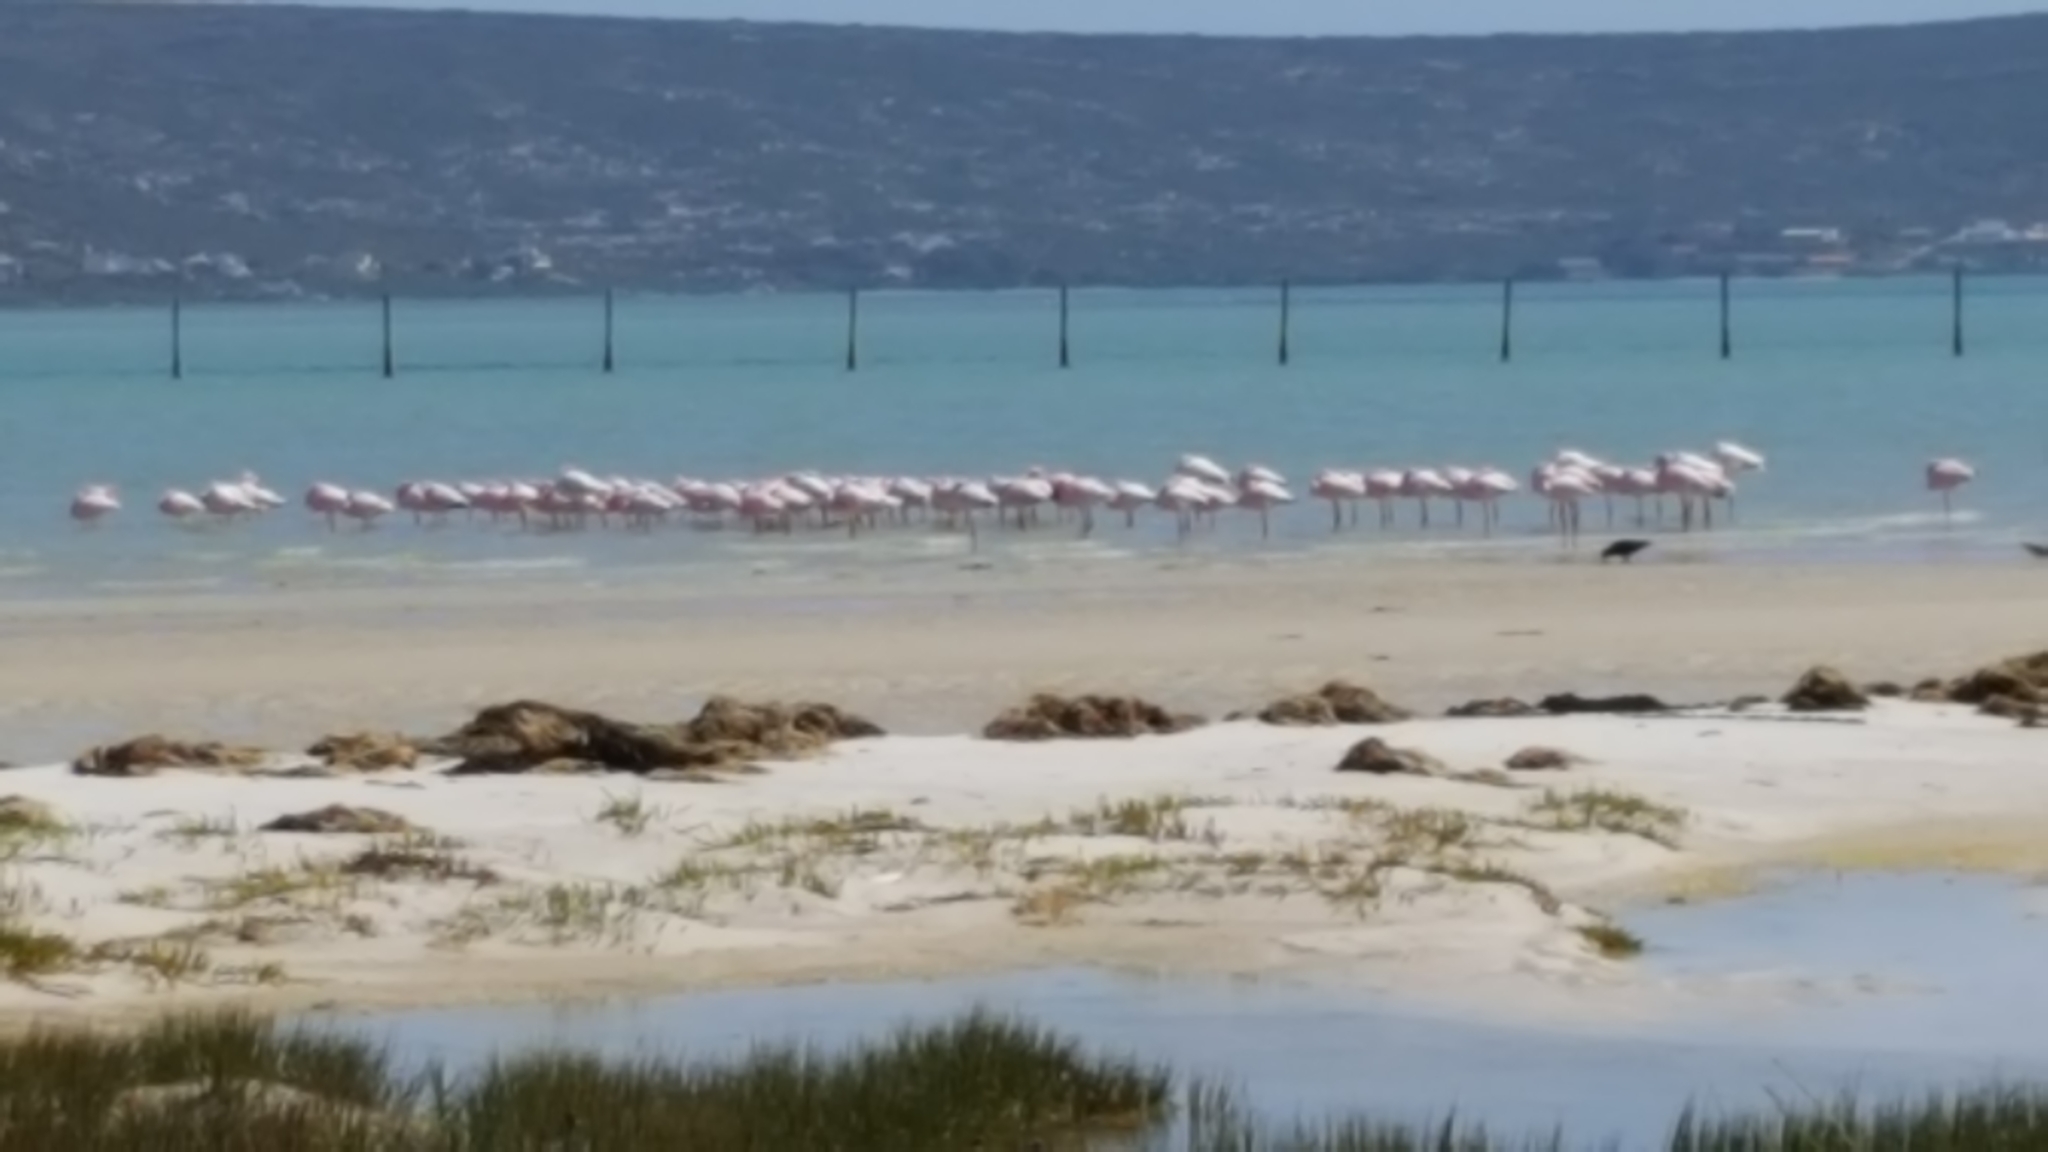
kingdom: Animalia
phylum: Chordata
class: Aves
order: Phoenicopteriformes
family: Phoenicopteridae
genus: Phoeniconaias
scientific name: Phoeniconaias minor
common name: Lesser flamingo
